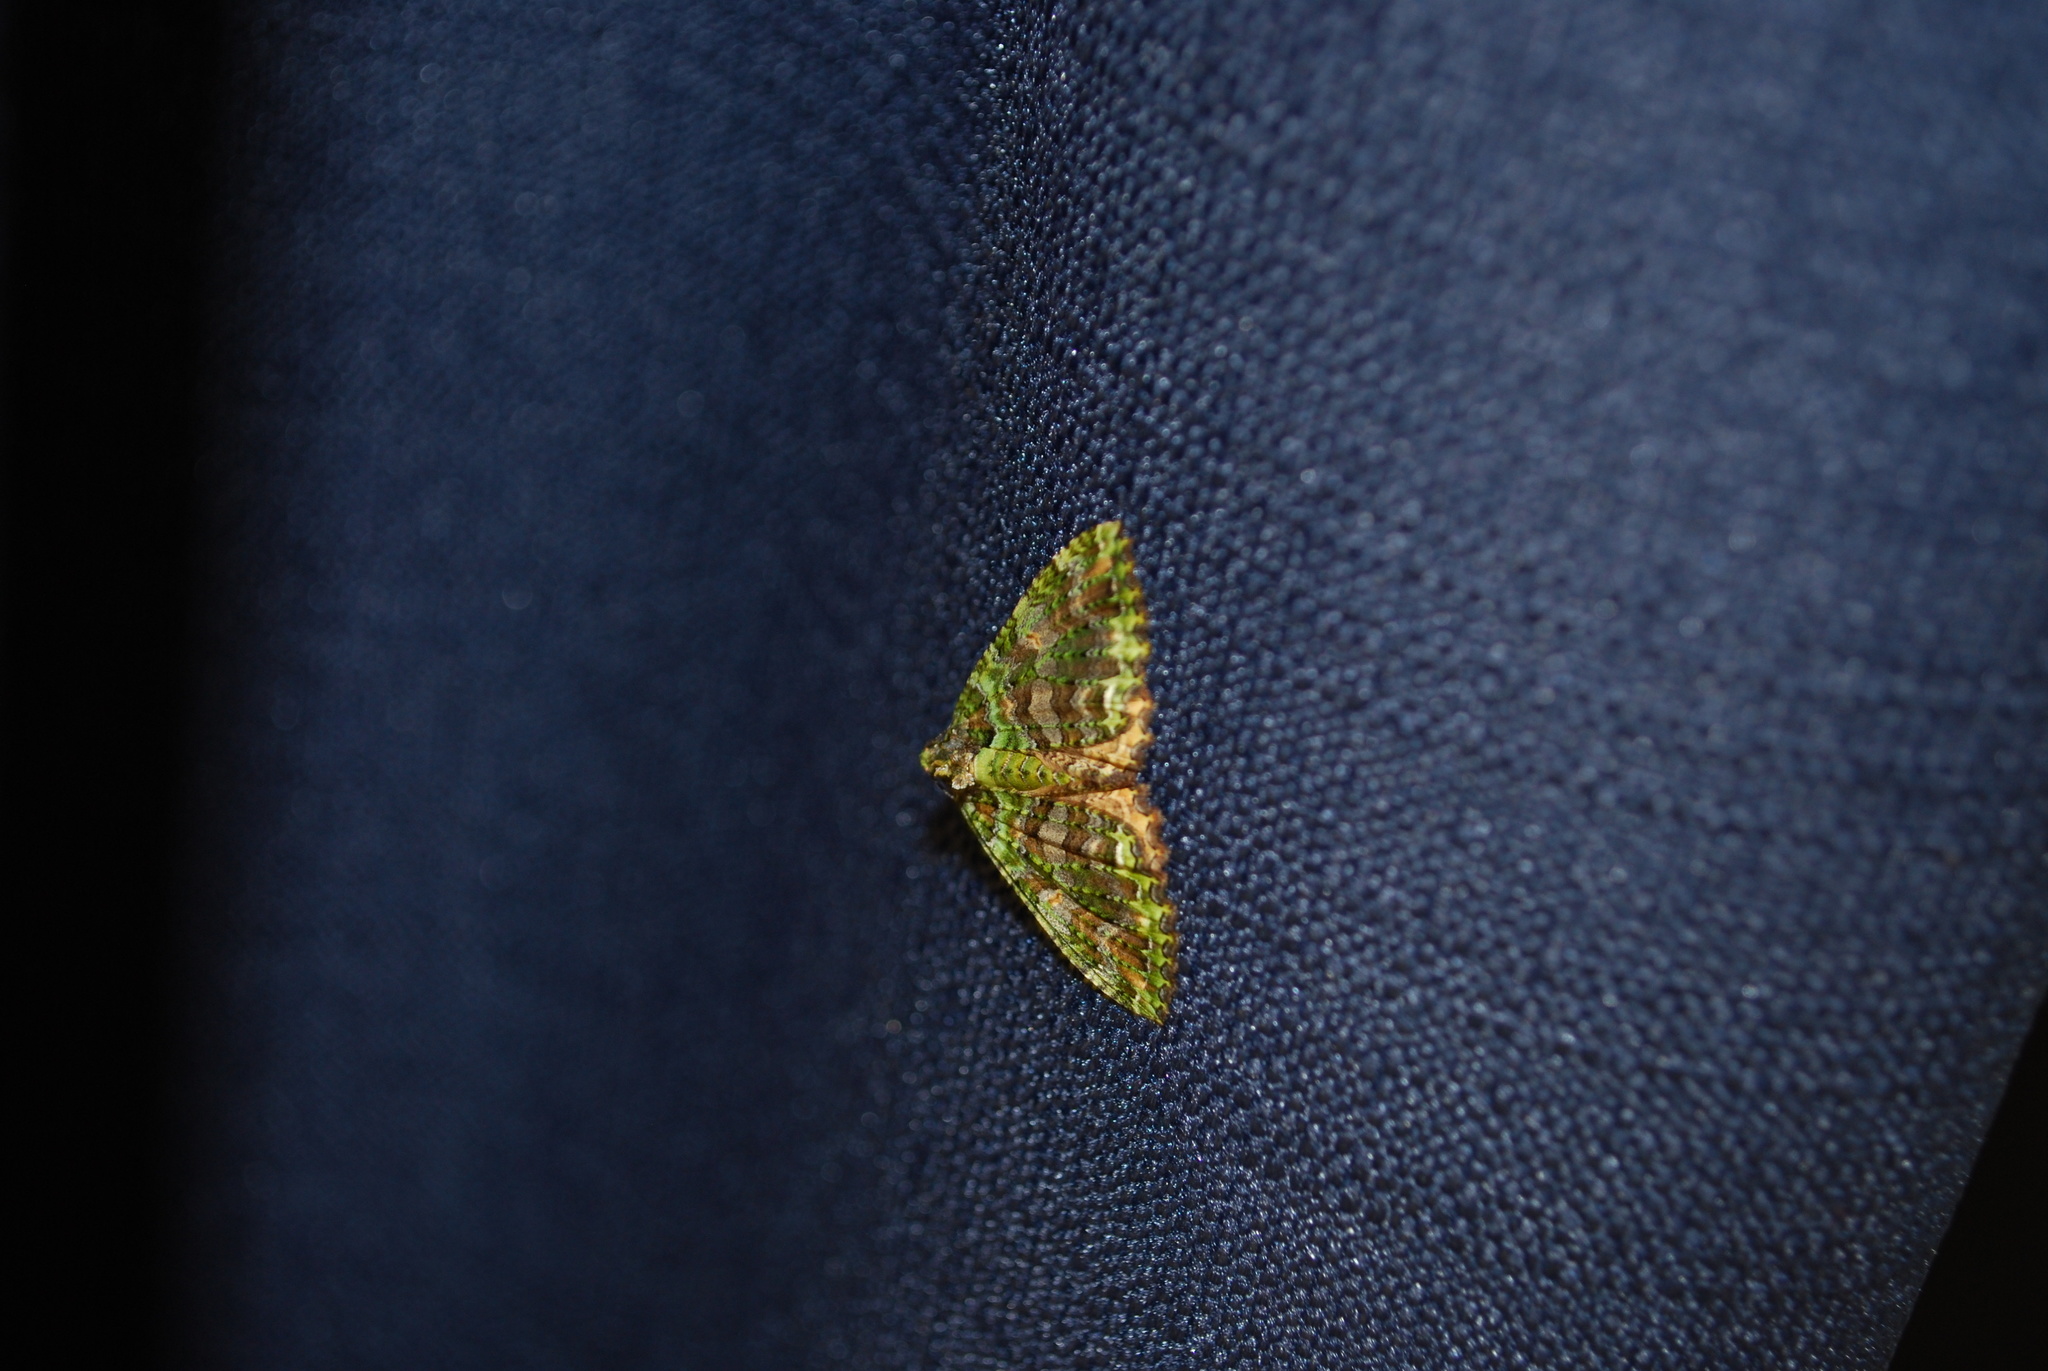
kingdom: Animalia
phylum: Arthropoda
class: Insecta
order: Lepidoptera
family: Geometridae
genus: Austrocidaria
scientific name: Austrocidaria similata
